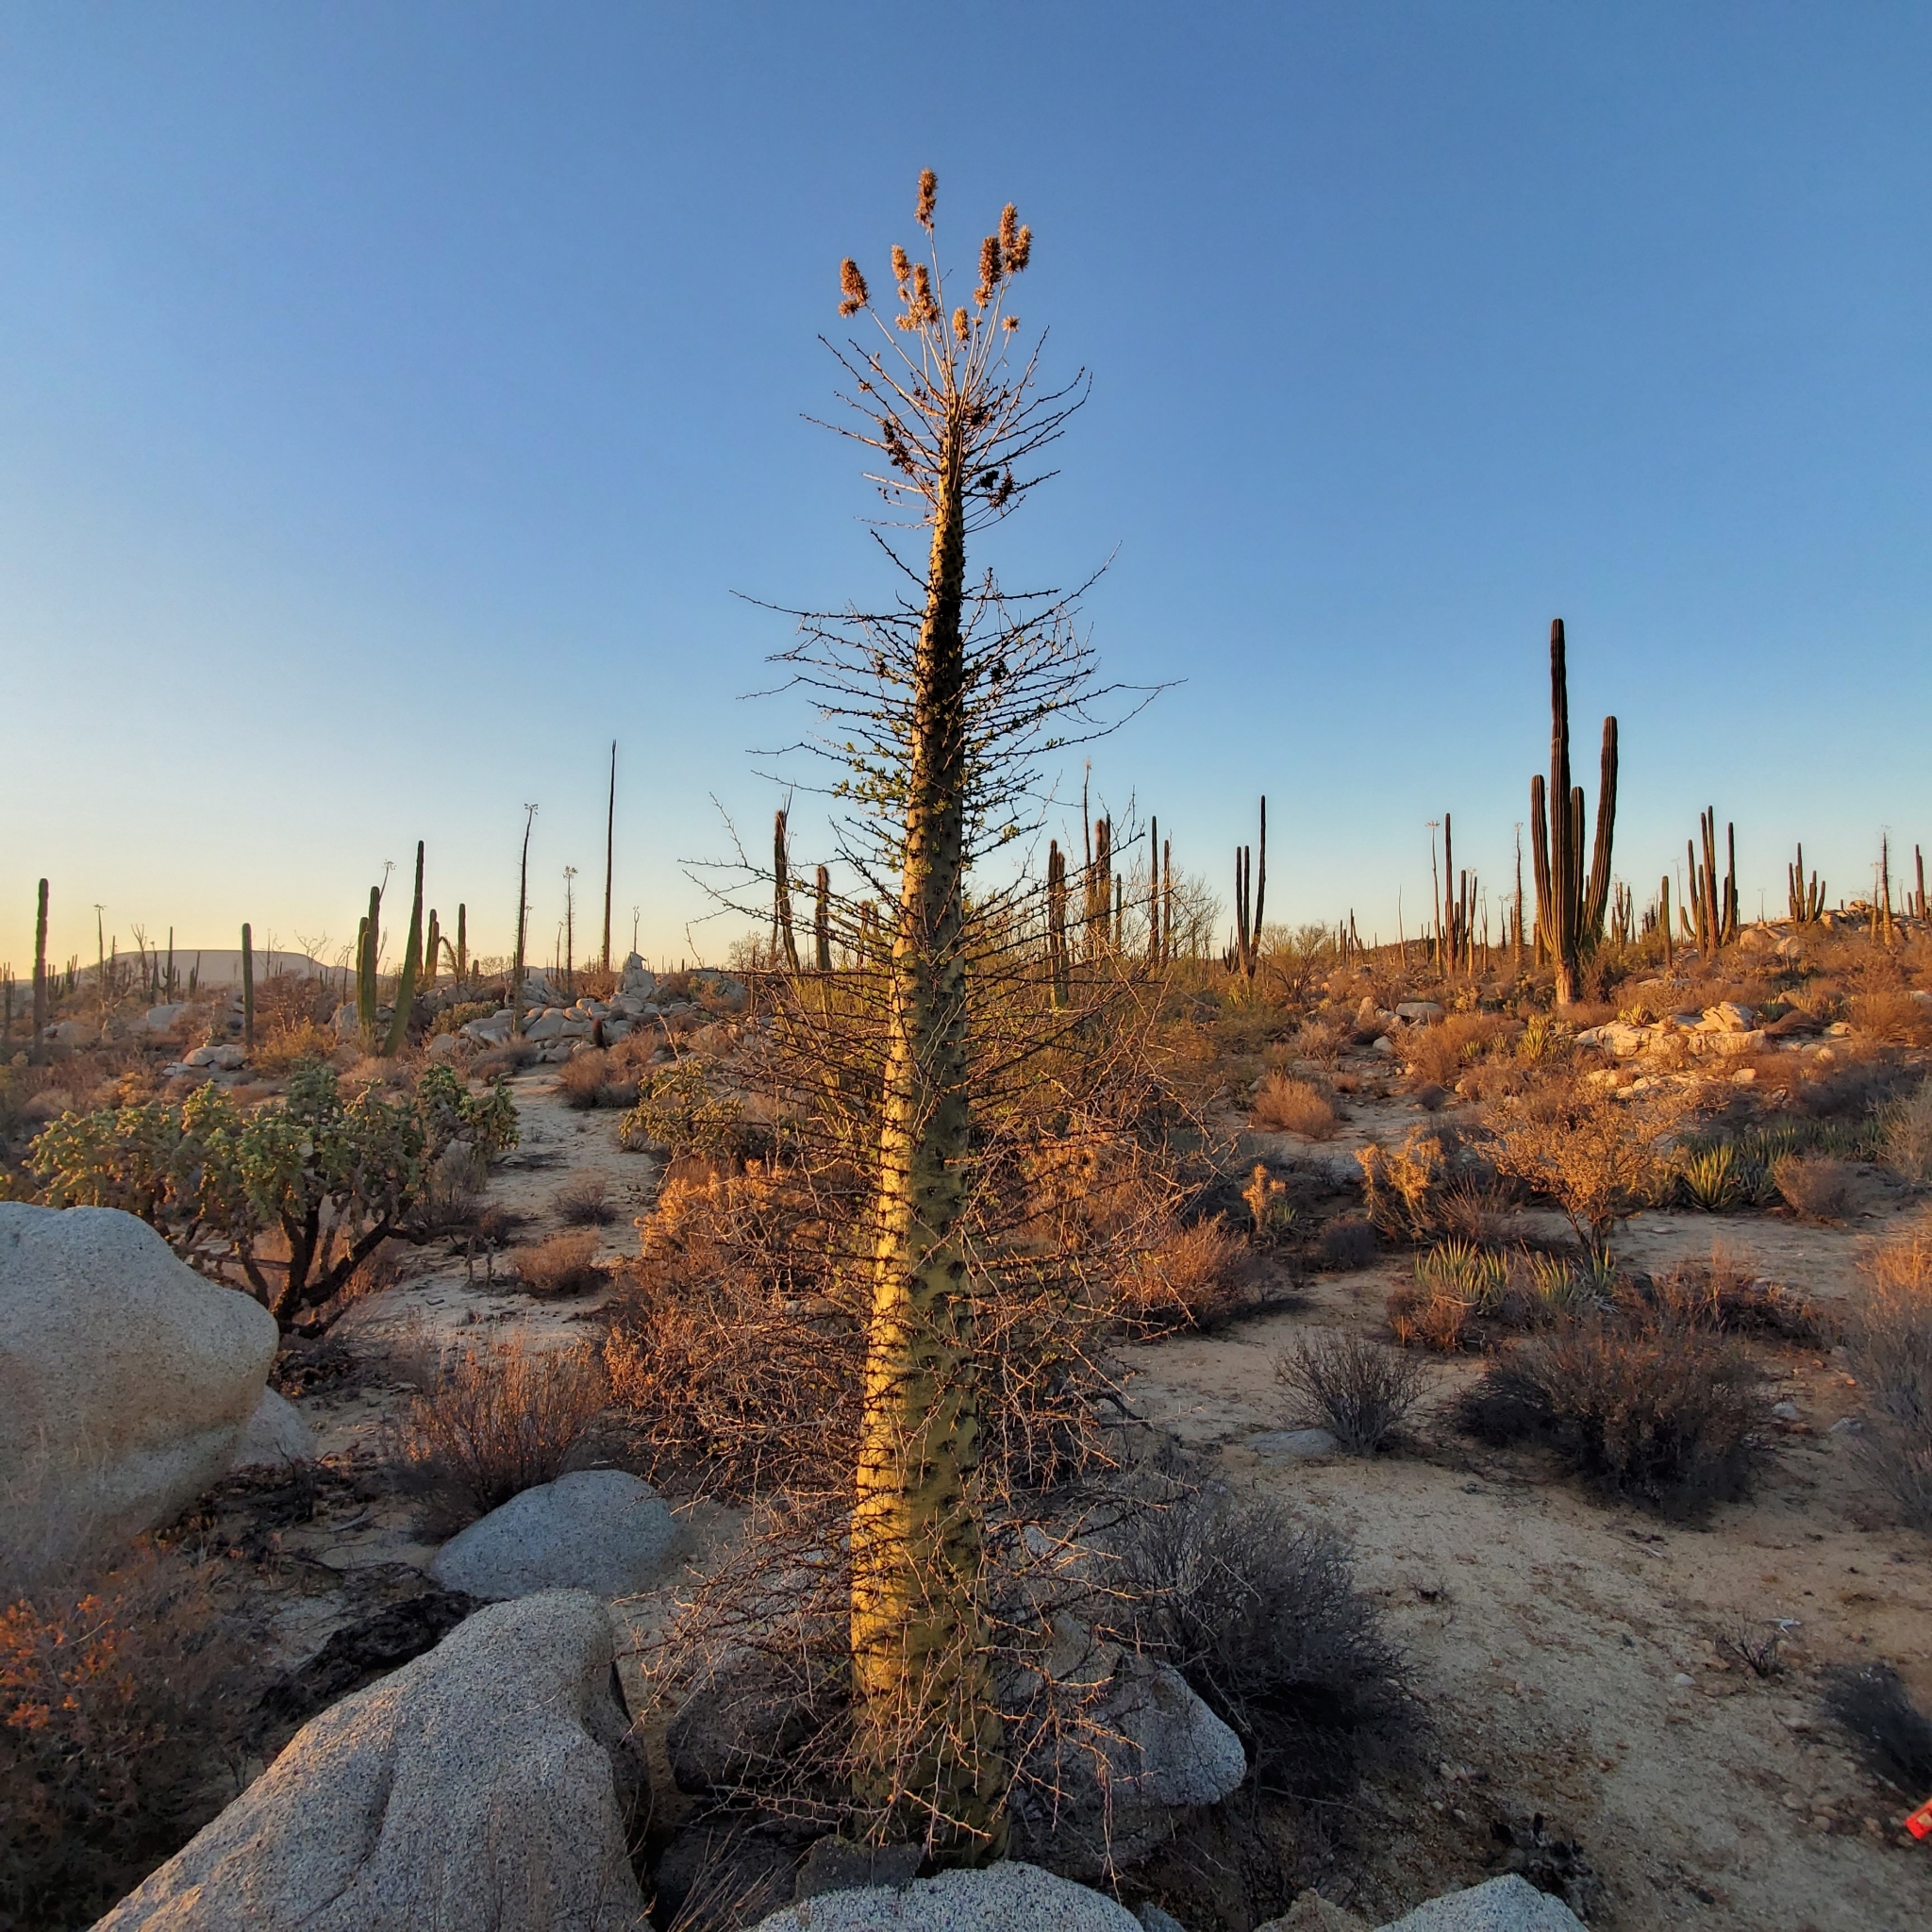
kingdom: Plantae
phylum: Tracheophyta
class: Magnoliopsida
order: Ericales
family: Fouquieriaceae
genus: Fouquieria
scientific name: Fouquieria columnaris
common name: Boojumtree
